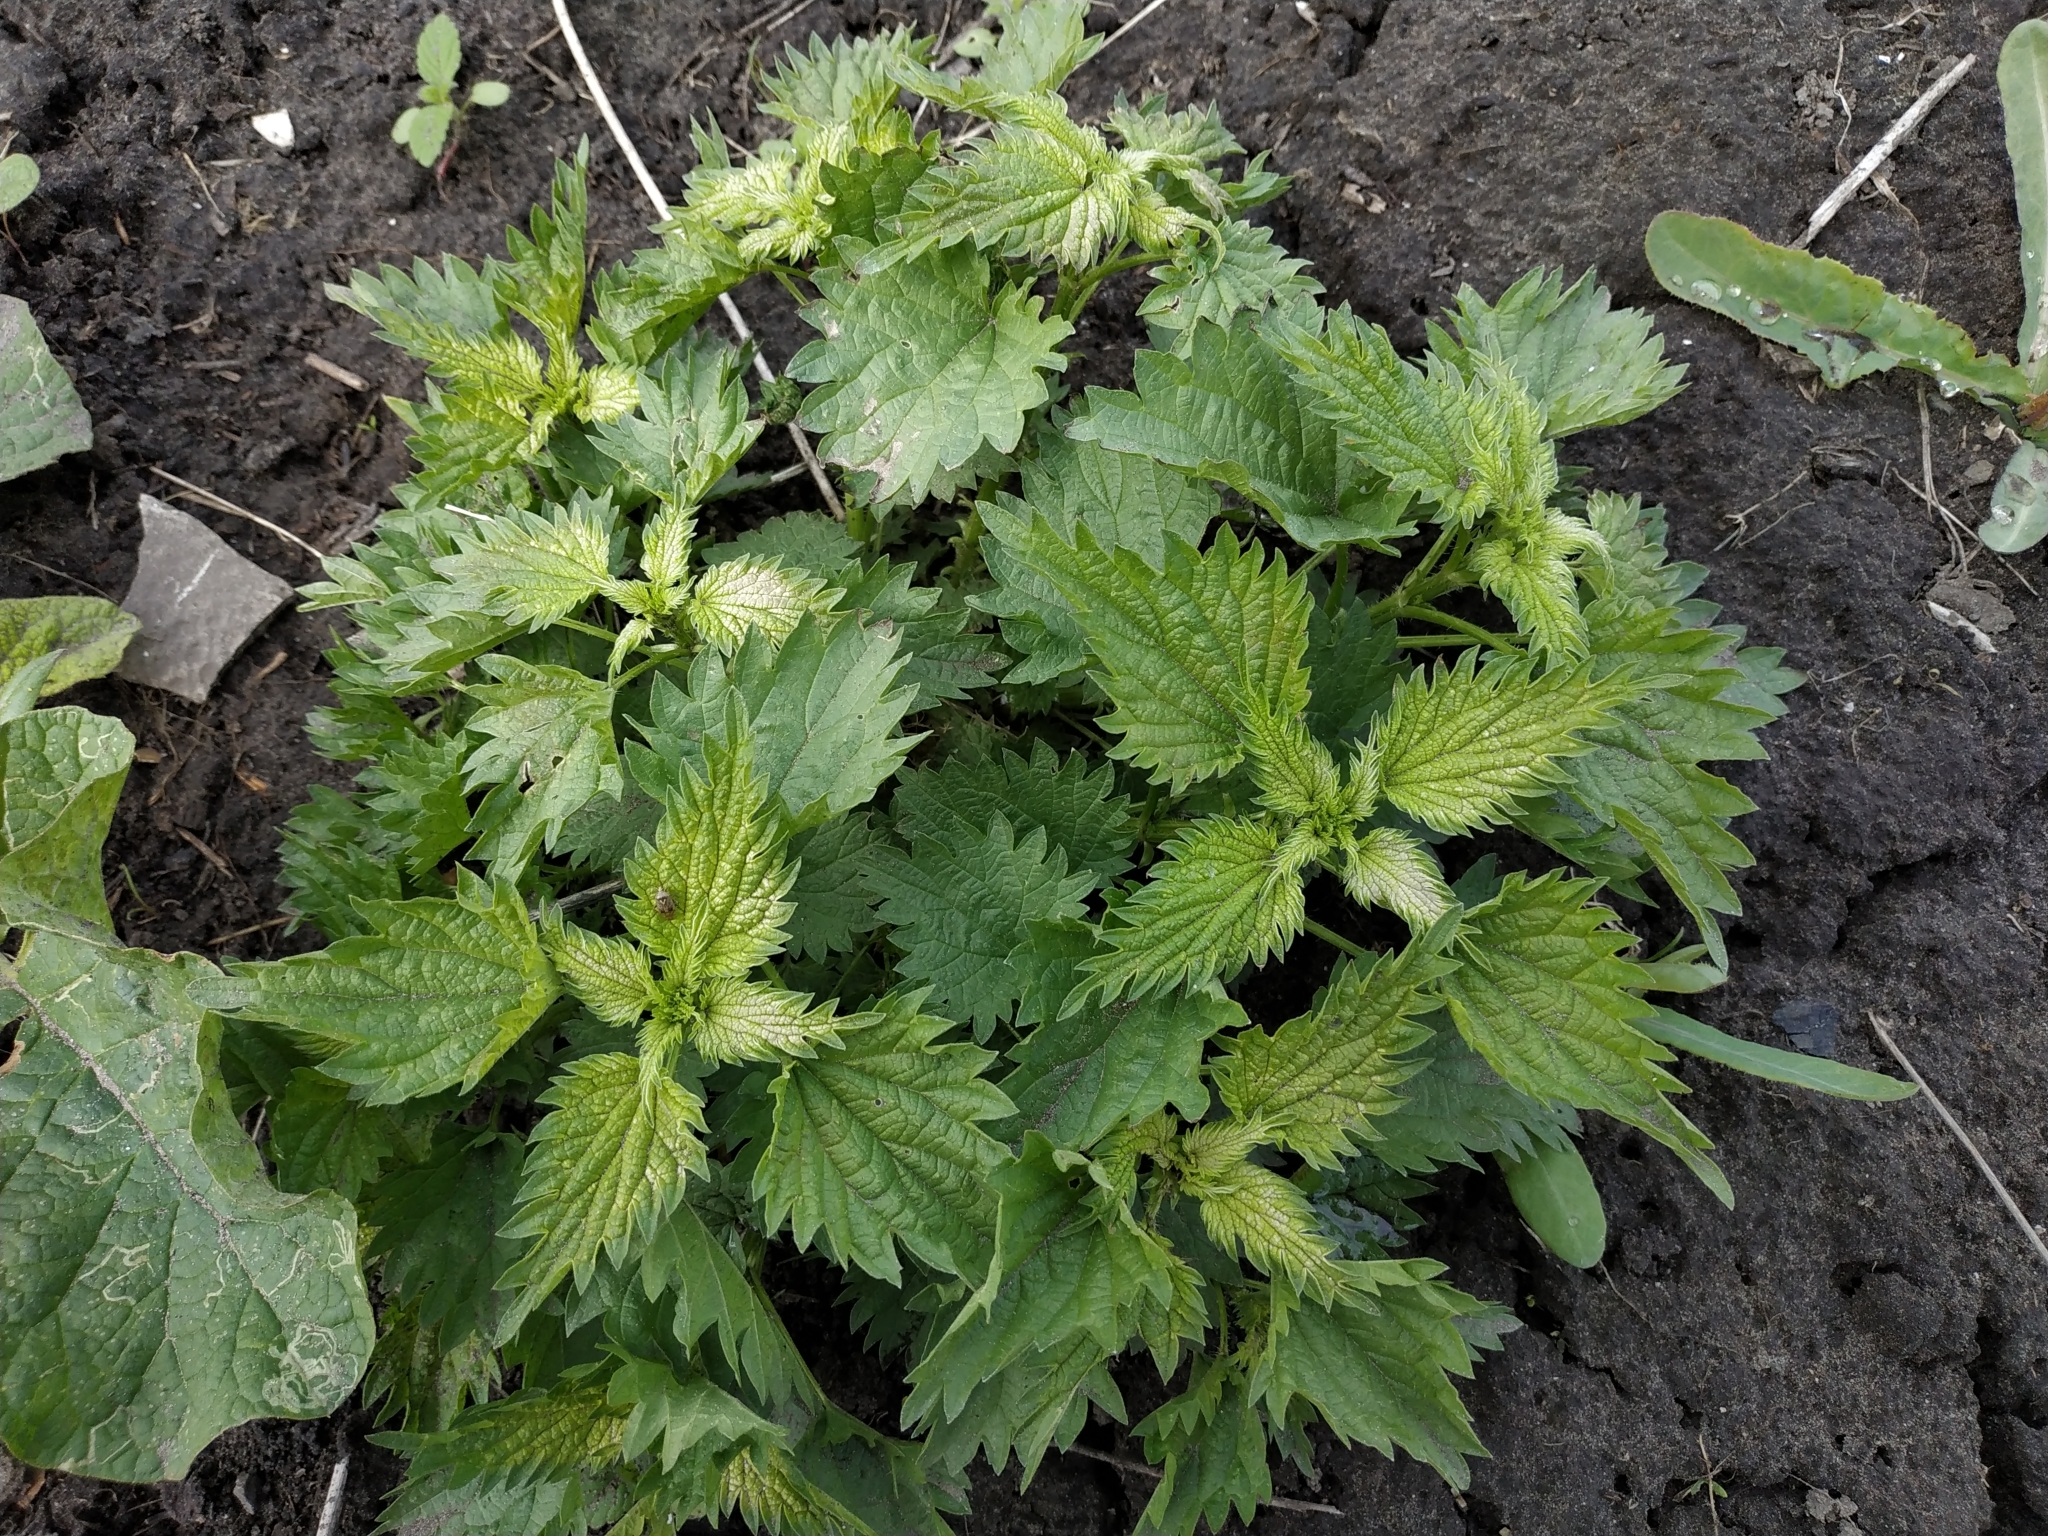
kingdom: Plantae
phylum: Tracheophyta
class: Magnoliopsida
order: Rosales
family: Urticaceae
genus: Urtica
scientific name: Urtica dioica
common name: Common nettle
